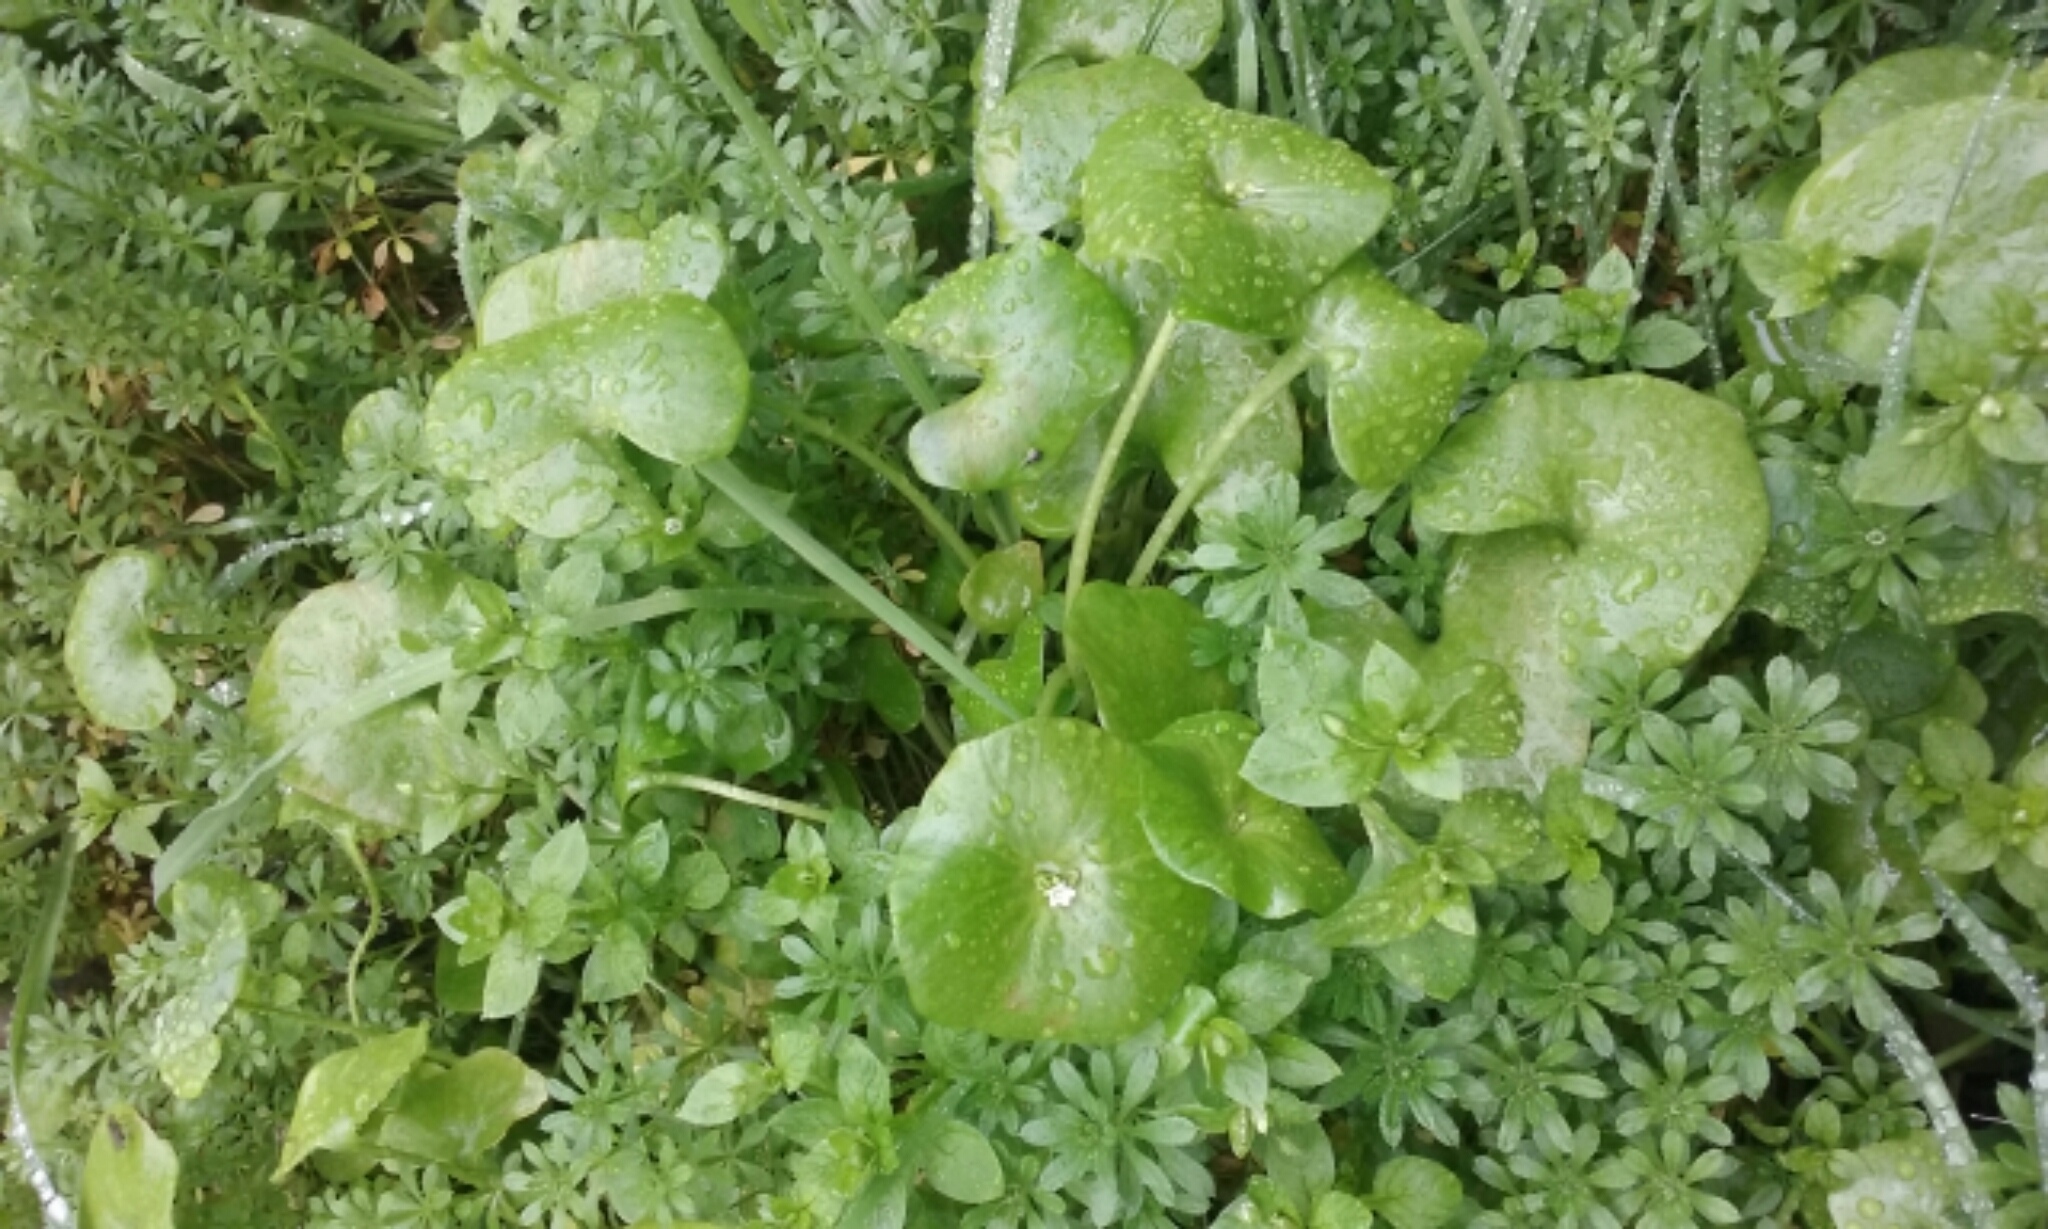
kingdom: Plantae
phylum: Tracheophyta
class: Magnoliopsida
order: Caryophyllales
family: Montiaceae
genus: Claytonia
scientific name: Claytonia perfoliata
